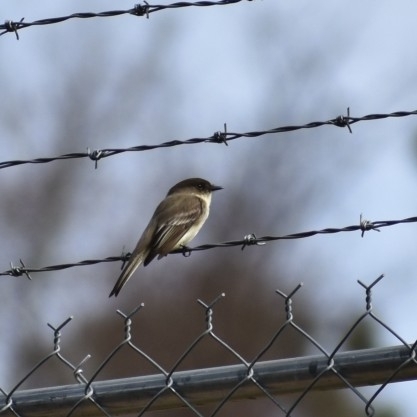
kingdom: Animalia
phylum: Chordata
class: Aves
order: Passeriformes
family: Tyrannidae
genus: Sayornis
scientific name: Sayornis phoebe
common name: Eastern phoebe
